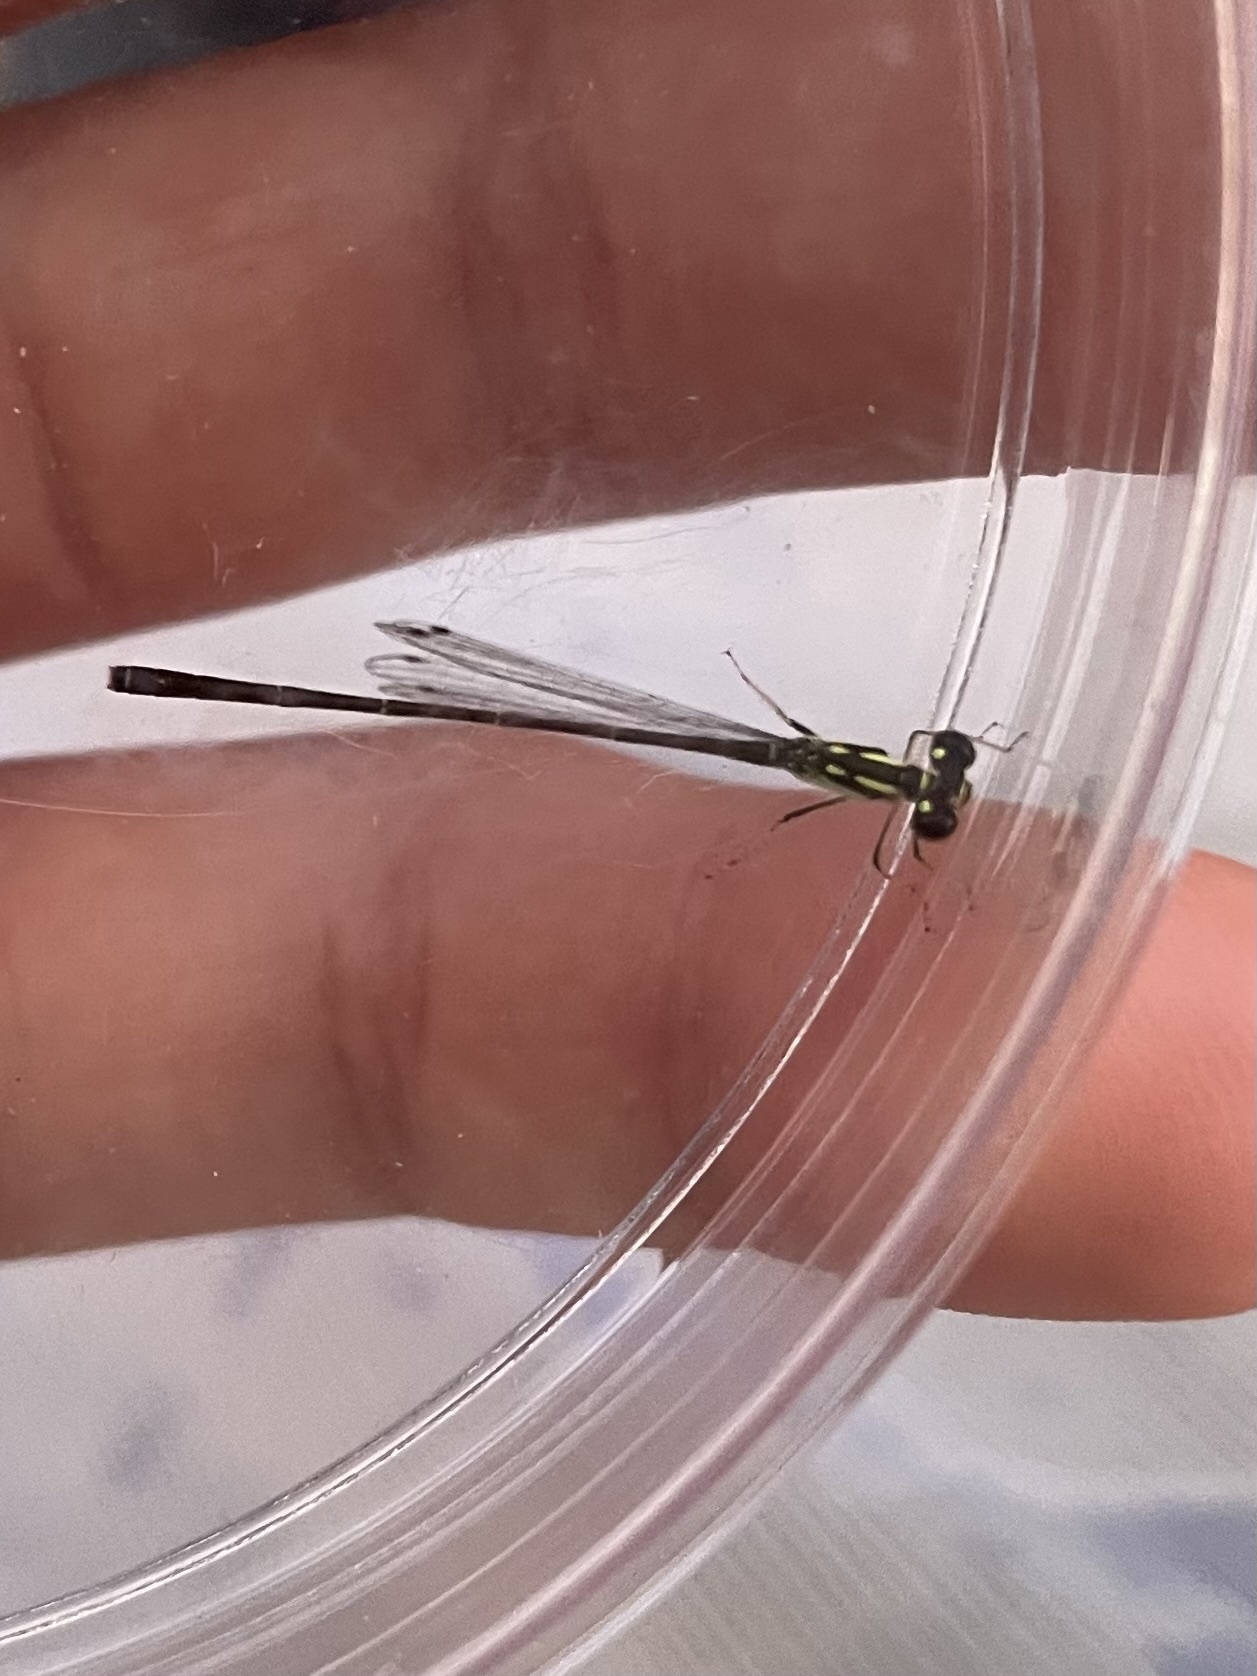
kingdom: Animalia
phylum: Arthropoda
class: Insecta
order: Odonata
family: Coenagrionidae
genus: Ischnura
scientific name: Ischnura posita
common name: Fragile forktail
